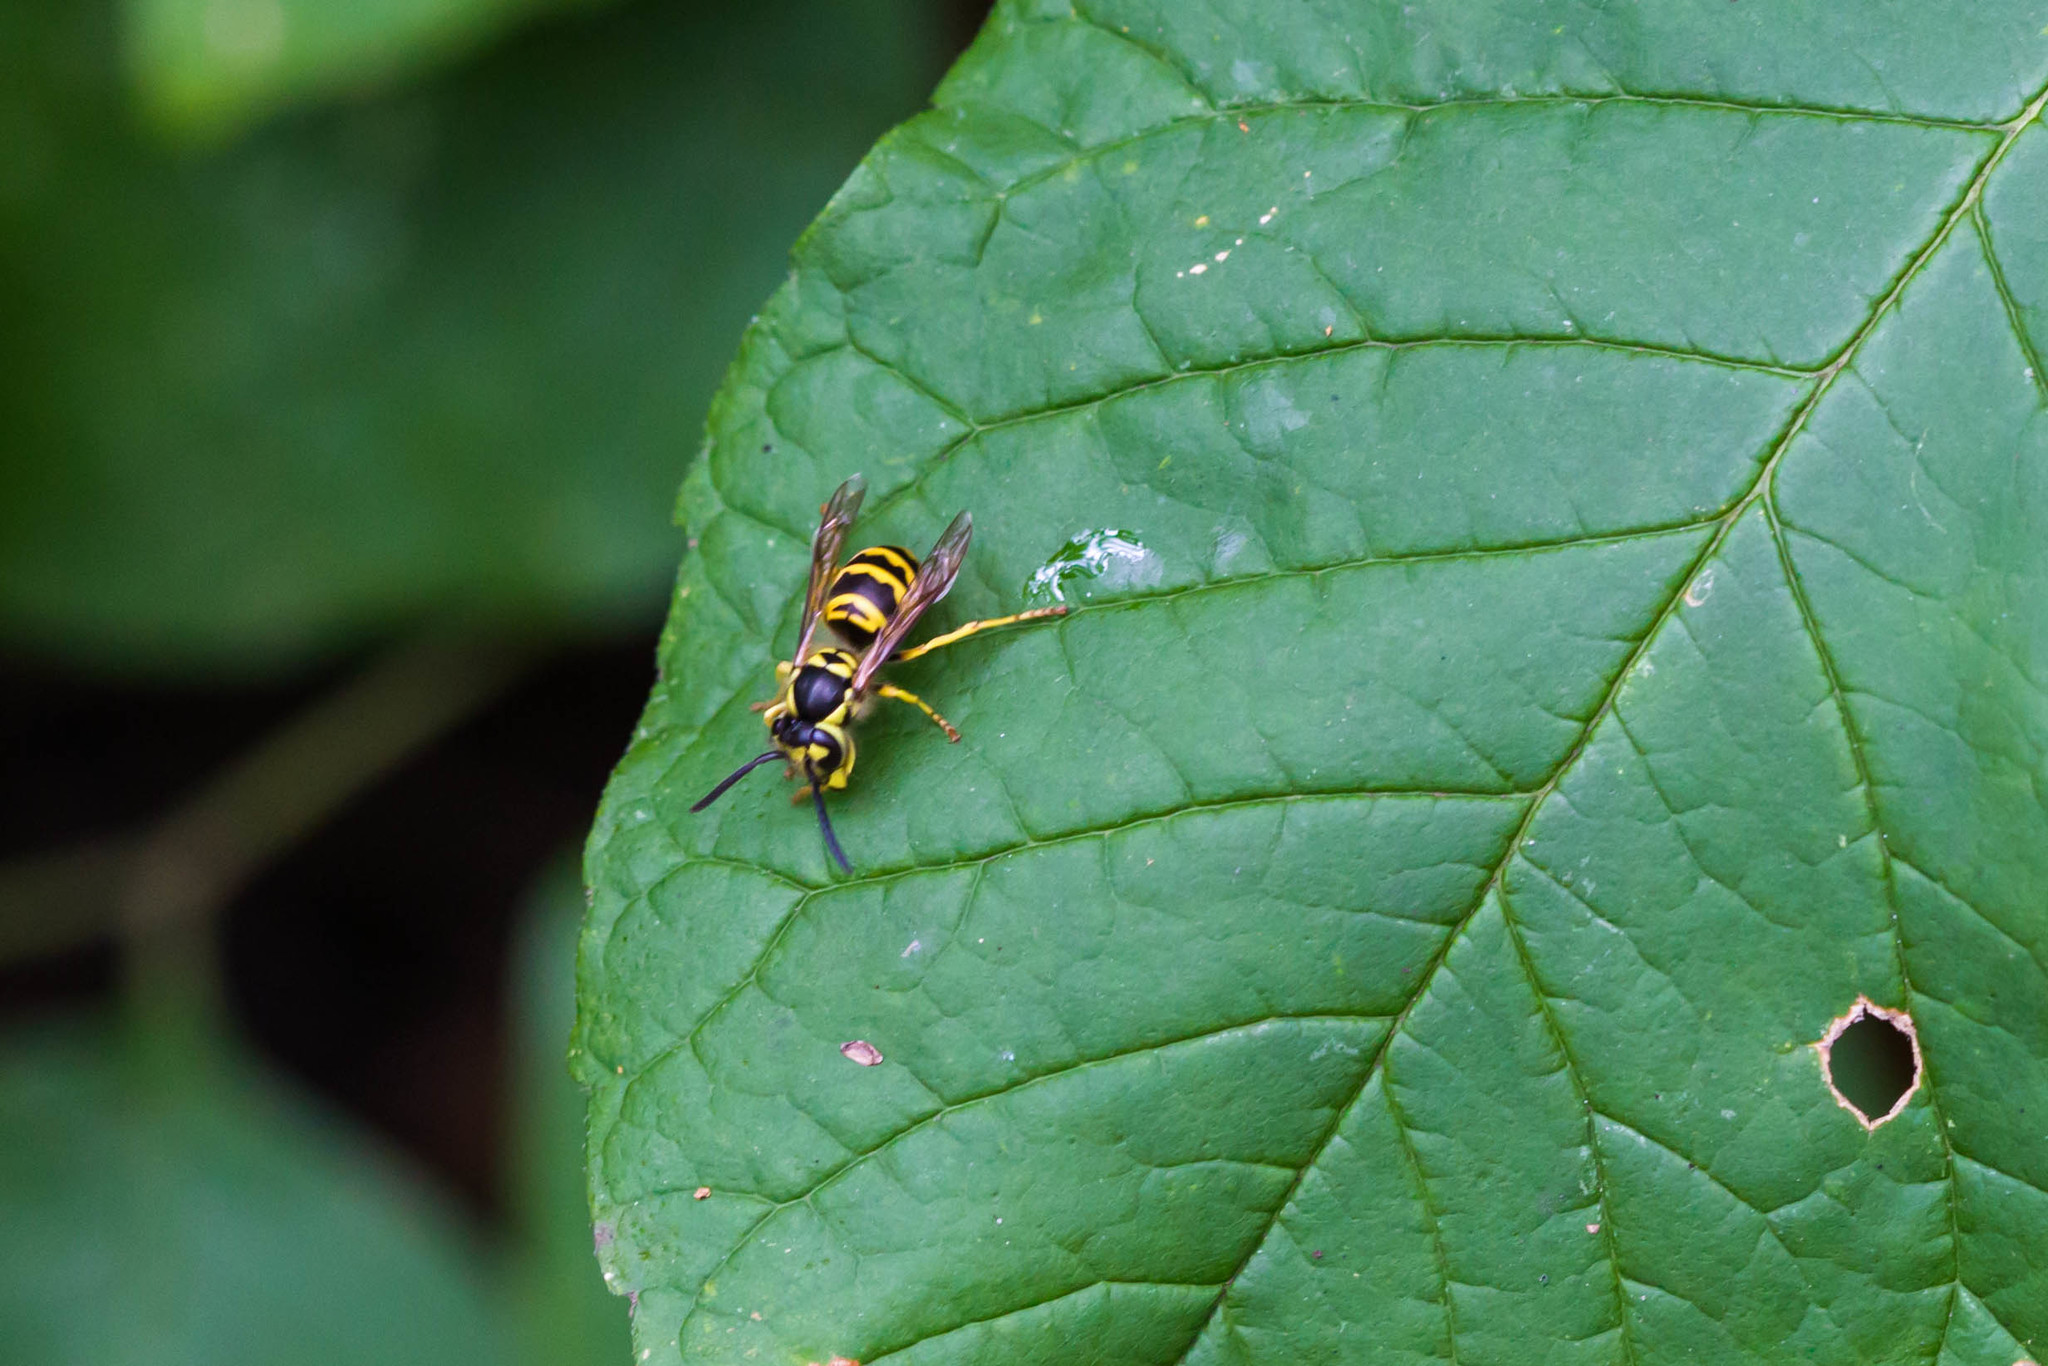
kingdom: Animalia
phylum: Arthropoda
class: Insecta
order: Hymenoptera
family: Vespidae
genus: Vespula
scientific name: Vespula maculifrons
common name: Eastern yellowjacket
